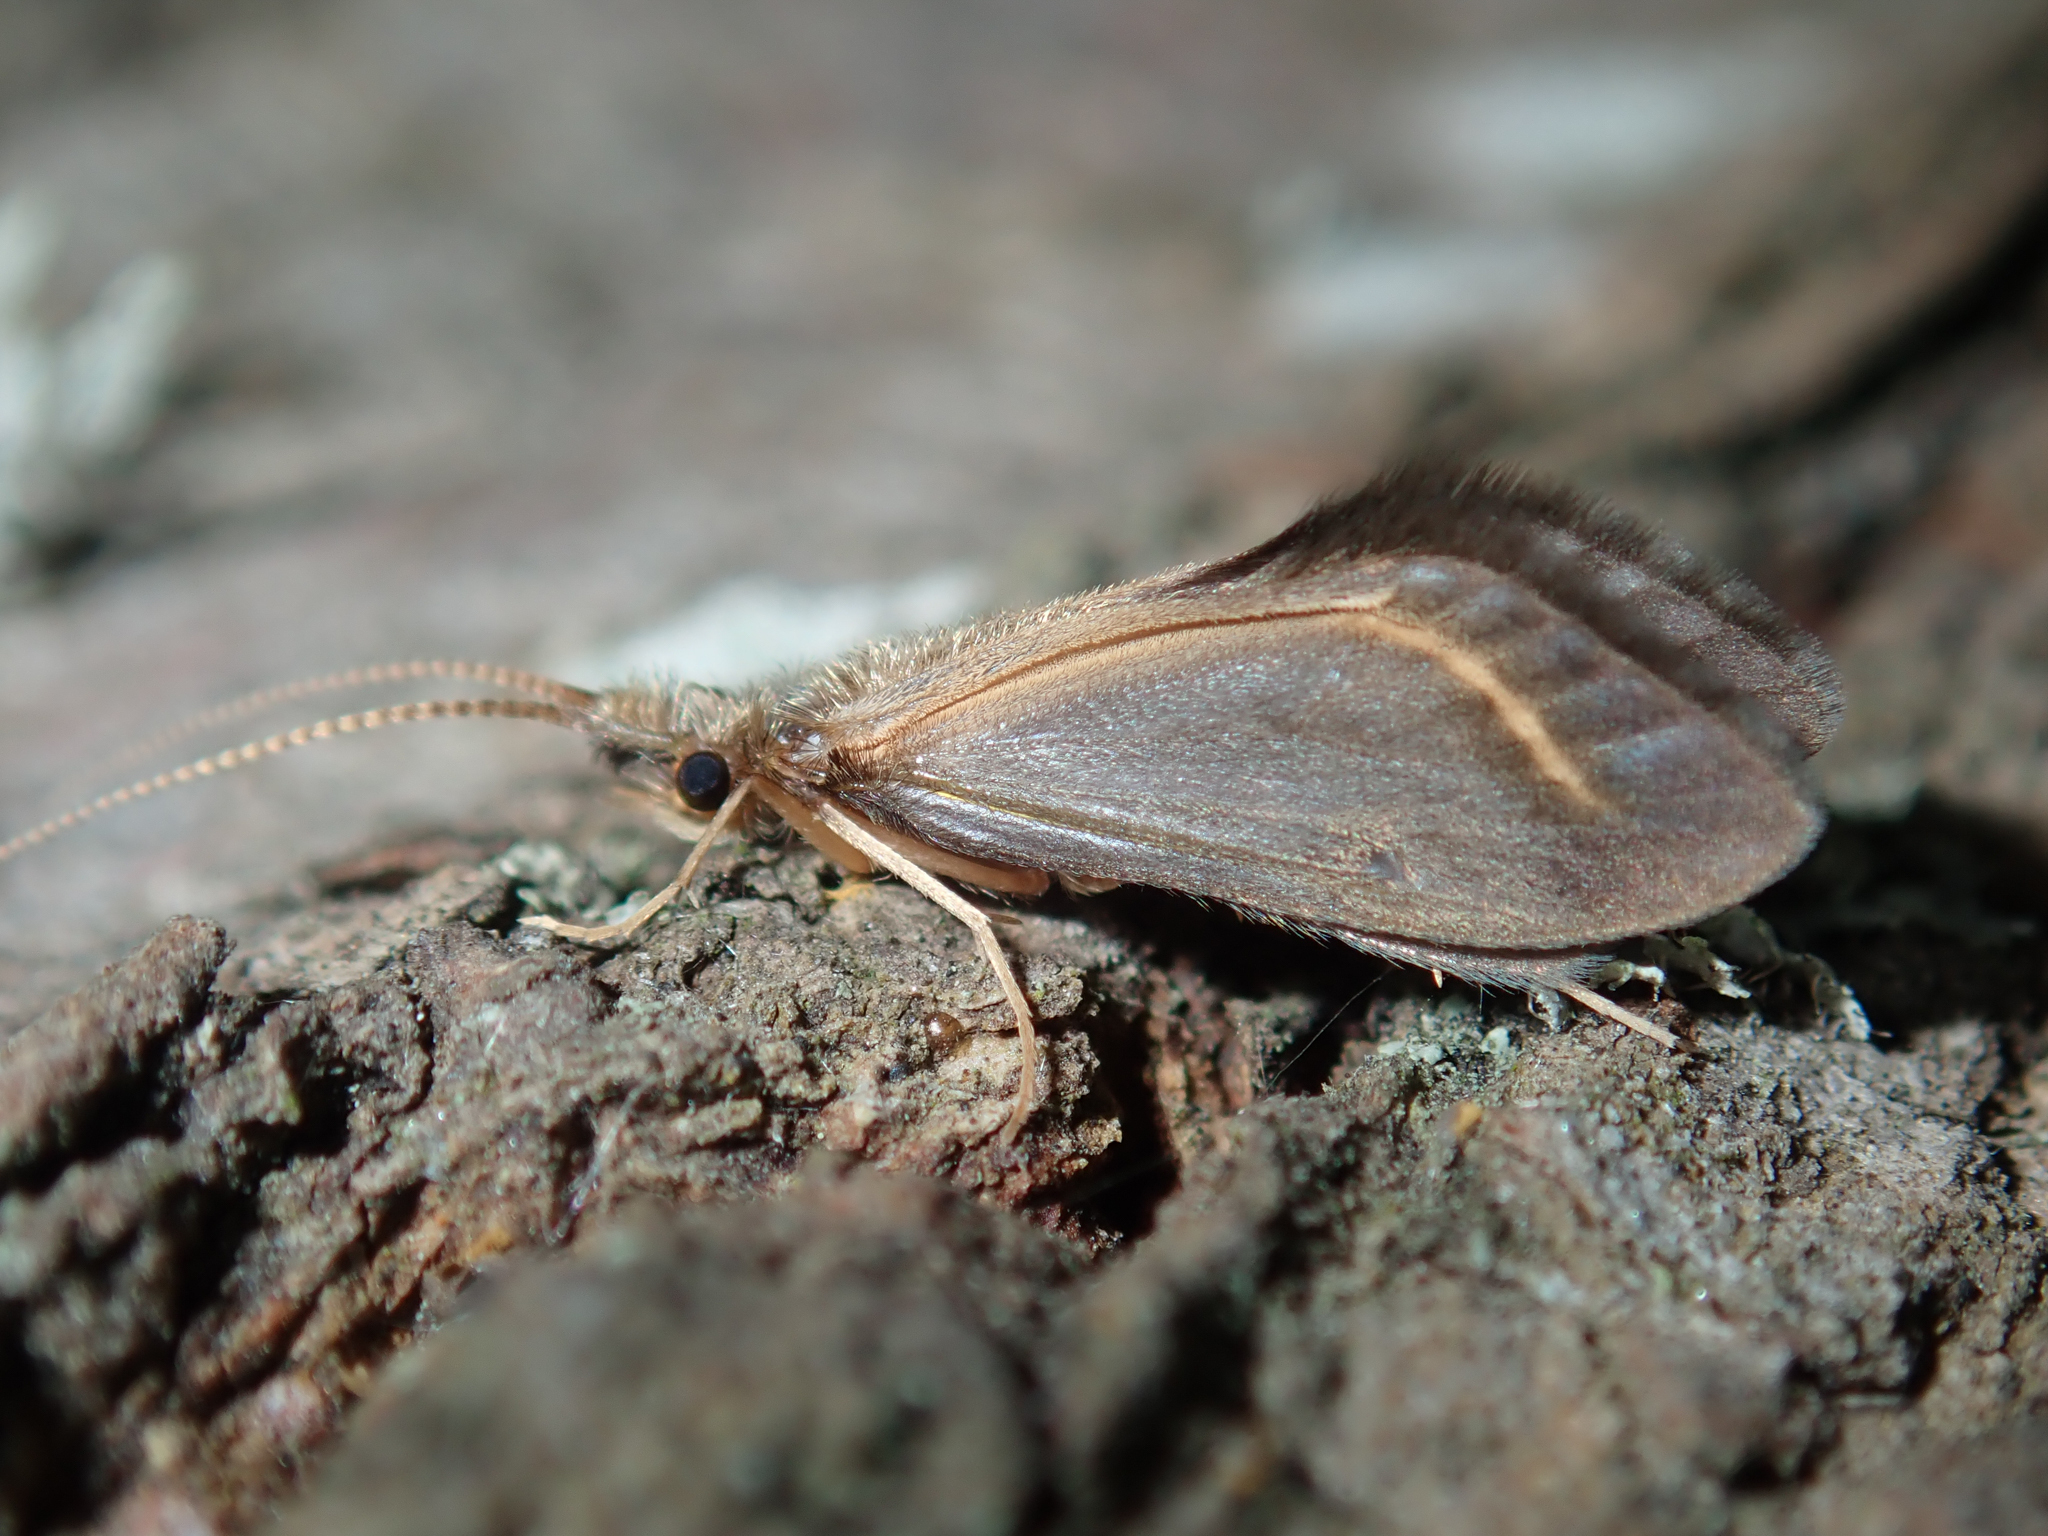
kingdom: Animalia
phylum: Arthropoda
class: Insecta
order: Trichoptera
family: Conoesucidae
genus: Olinga
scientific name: Olinga feredayi
